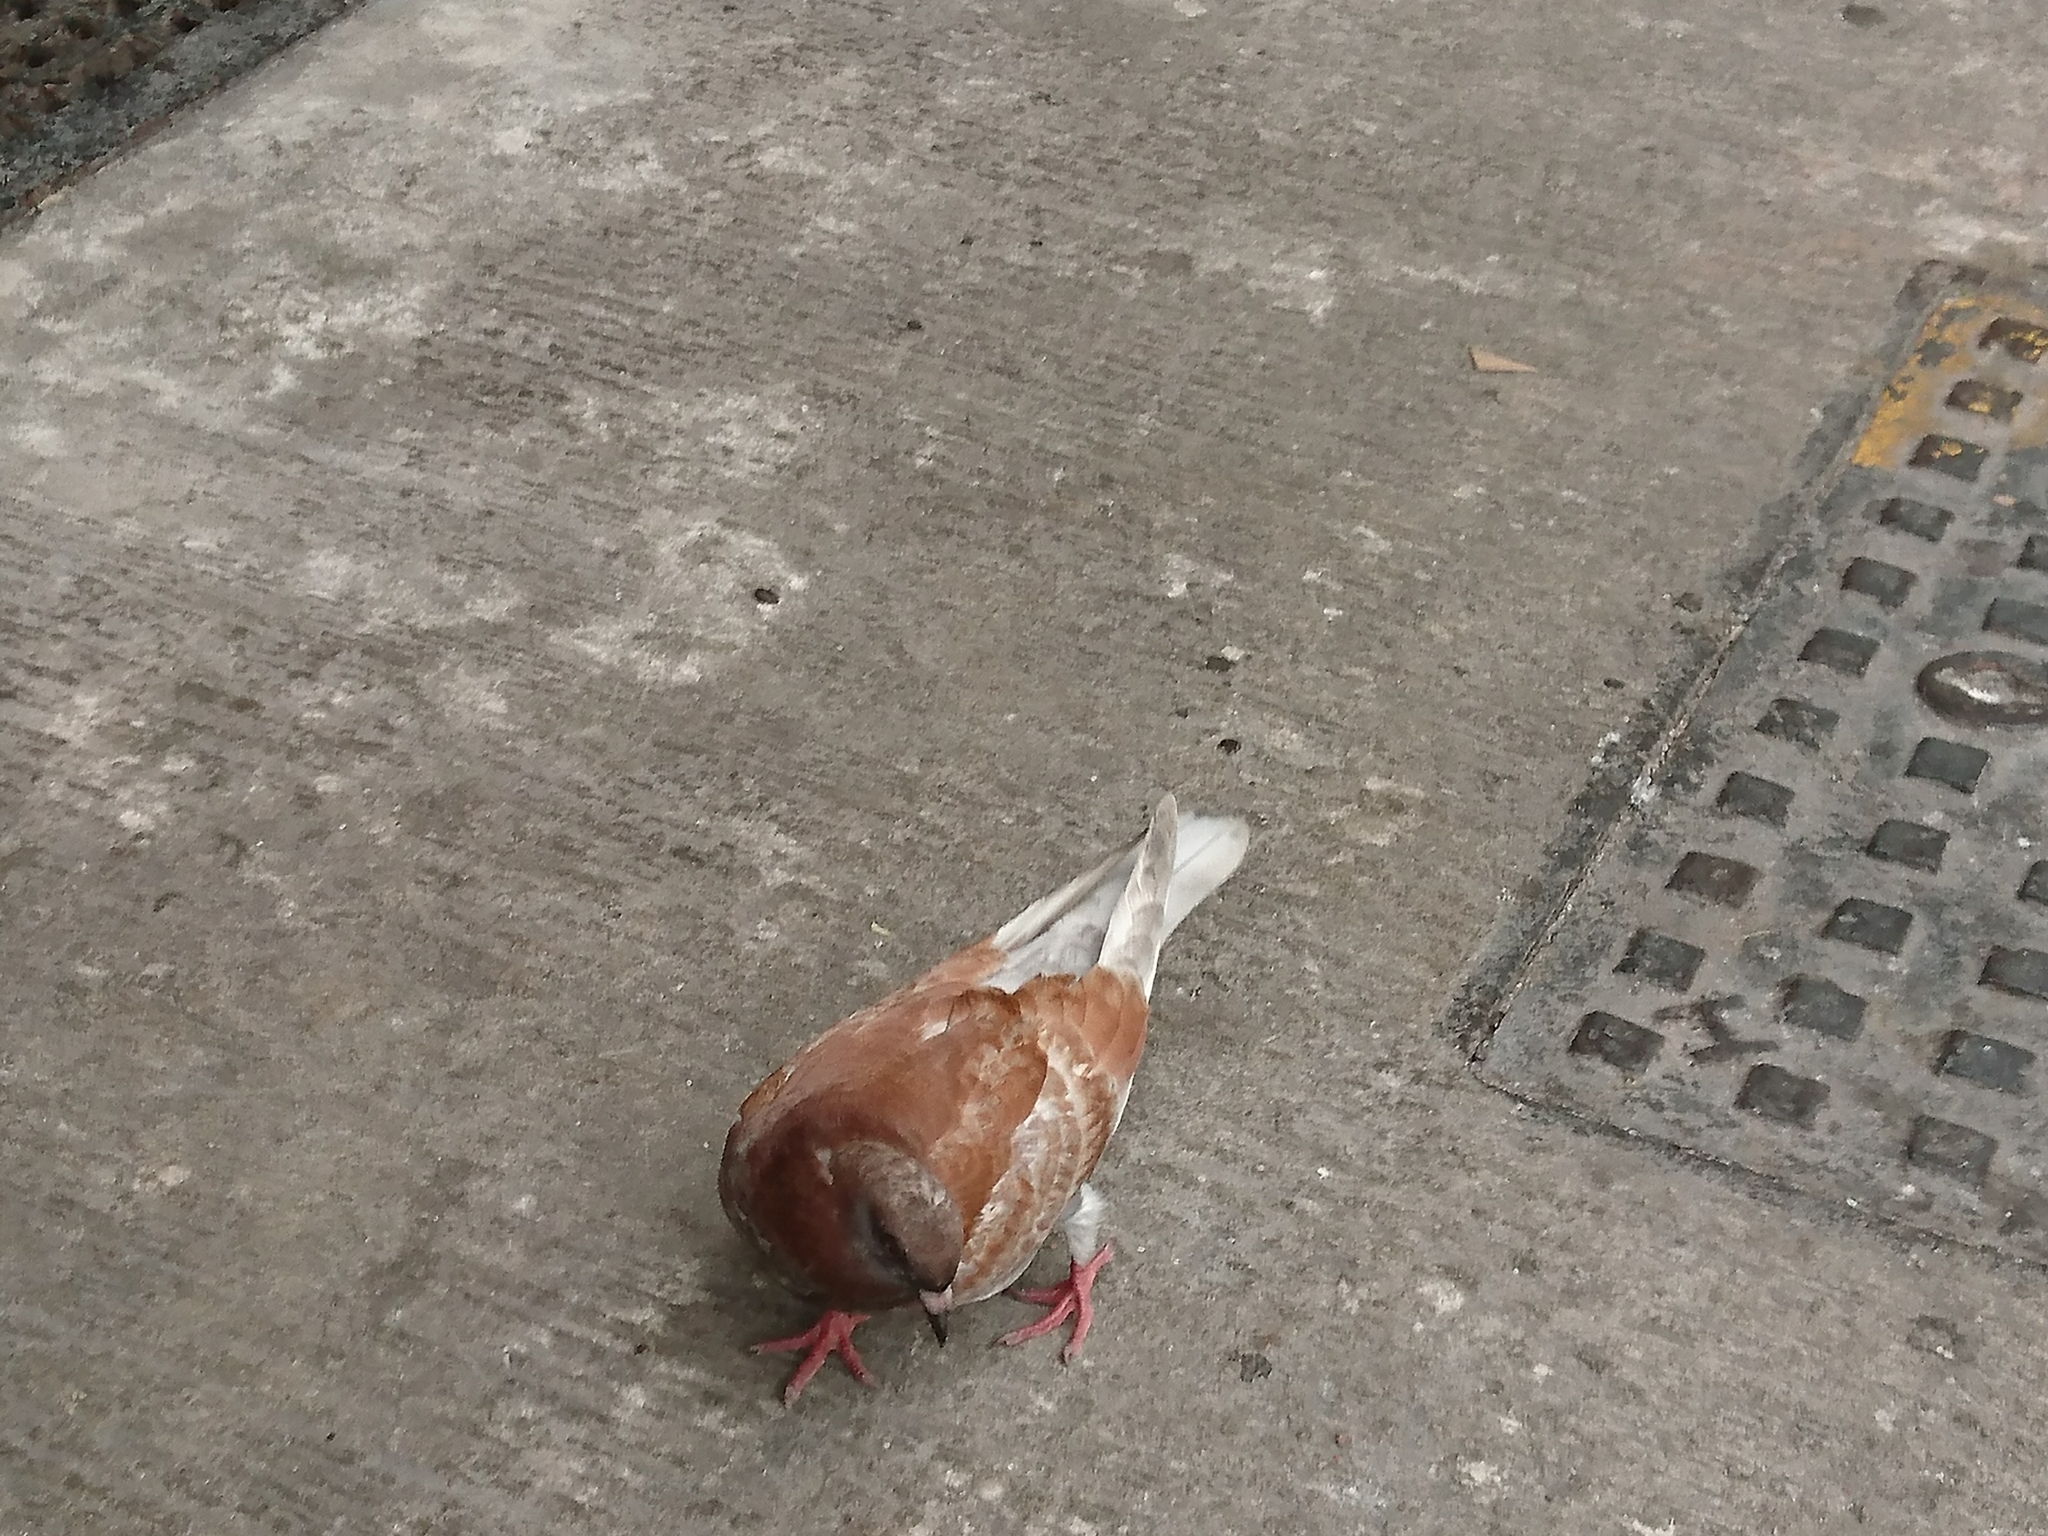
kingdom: Animalia
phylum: Chordata
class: Aves
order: Columbiformes
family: Columbidae
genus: Columba
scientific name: Columba livia
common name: Rock pigeon
